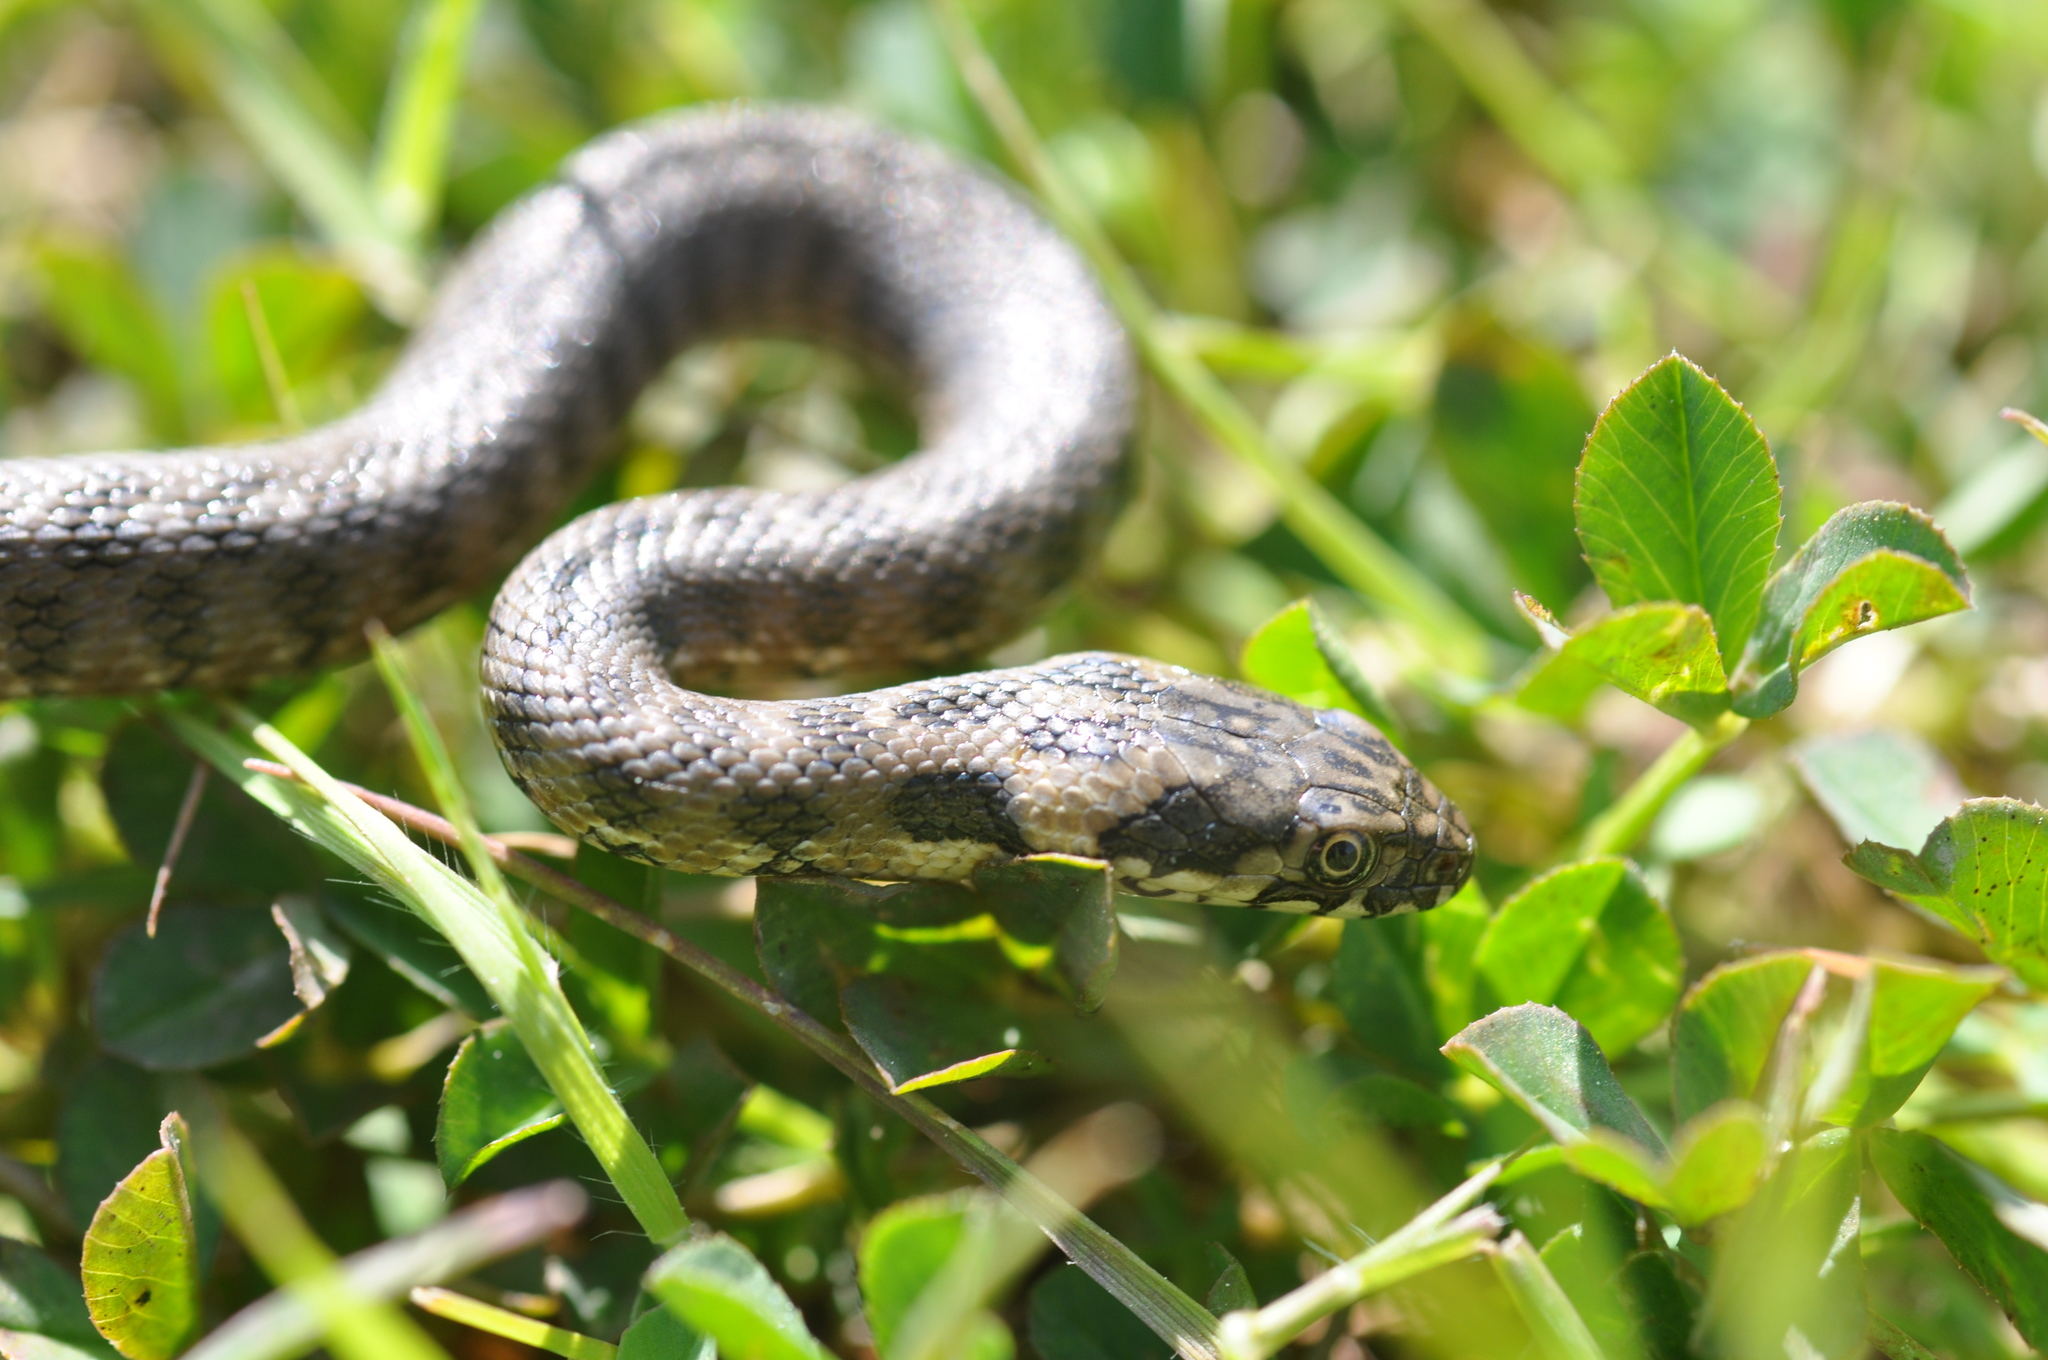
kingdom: Animalia
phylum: Chordata
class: Squamata
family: Colubridae
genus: Natrix
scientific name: Natrix maura
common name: Viperine water snake
